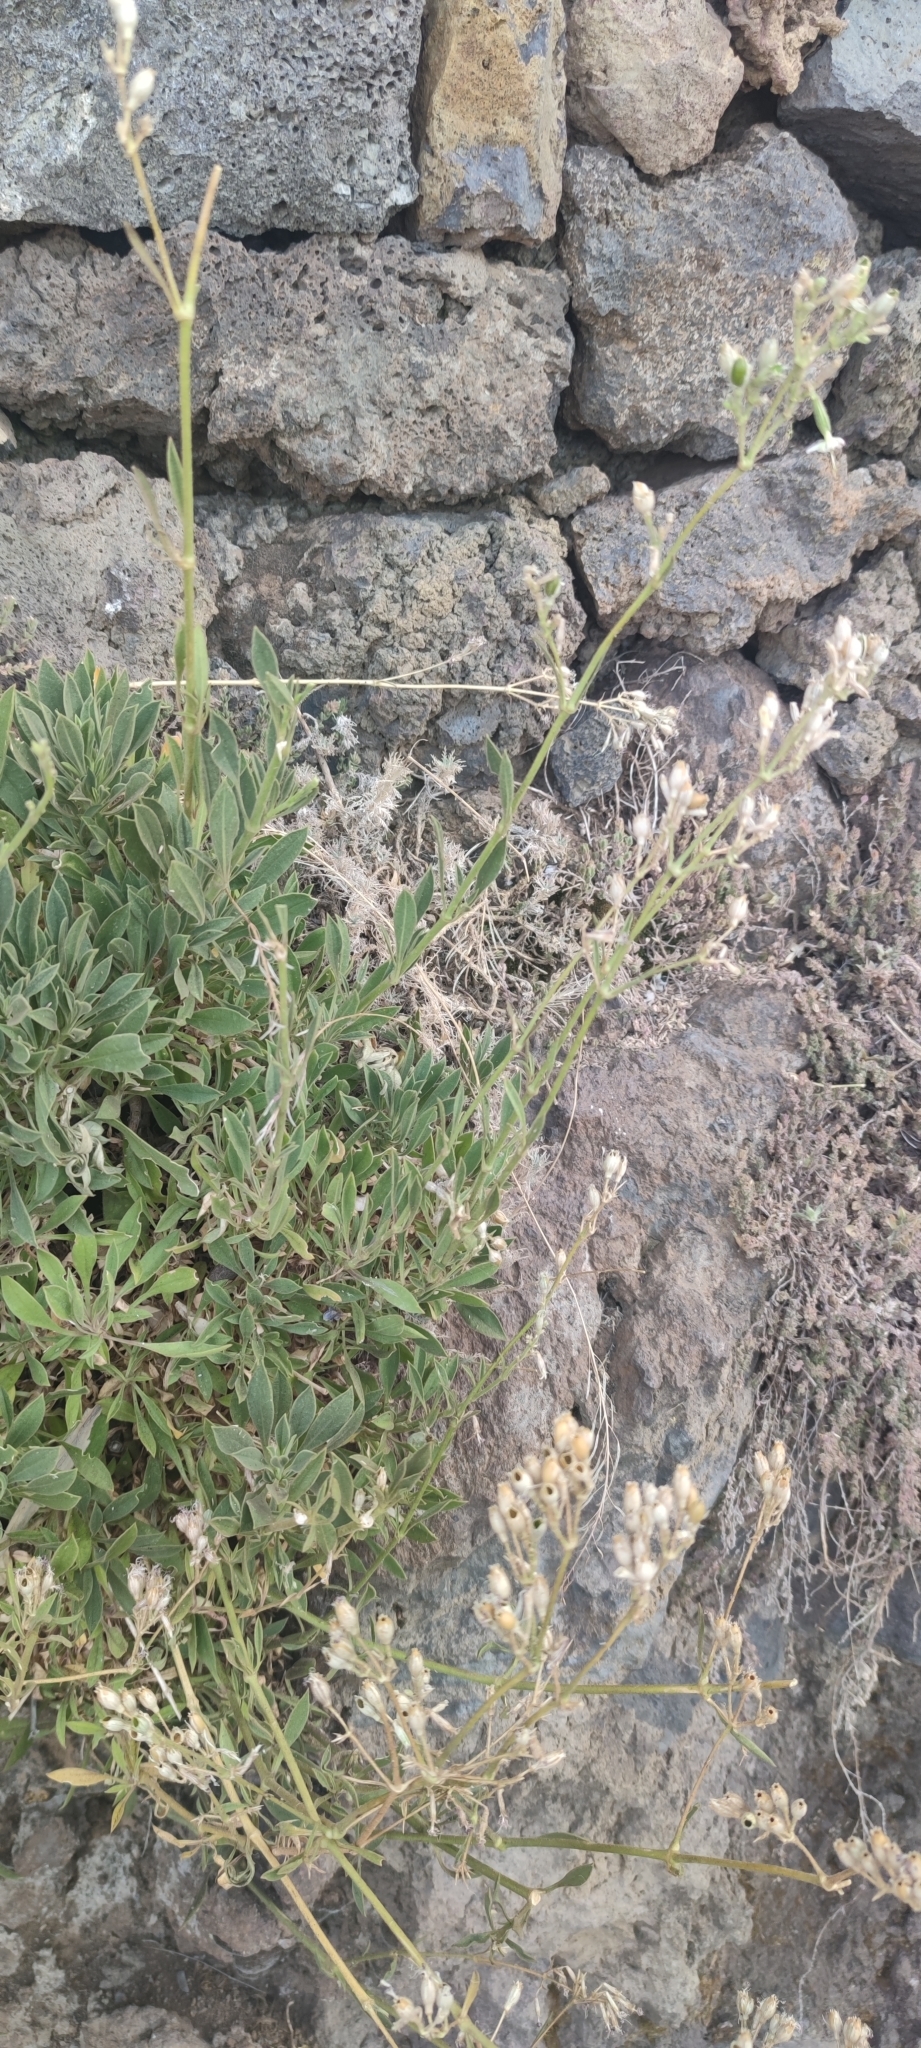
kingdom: Plantae
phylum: Tracheophyta
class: Magnoliopsida
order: Caryophyllales
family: Caryophyllaceae
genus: Silene
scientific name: Silene pogonocalyx
